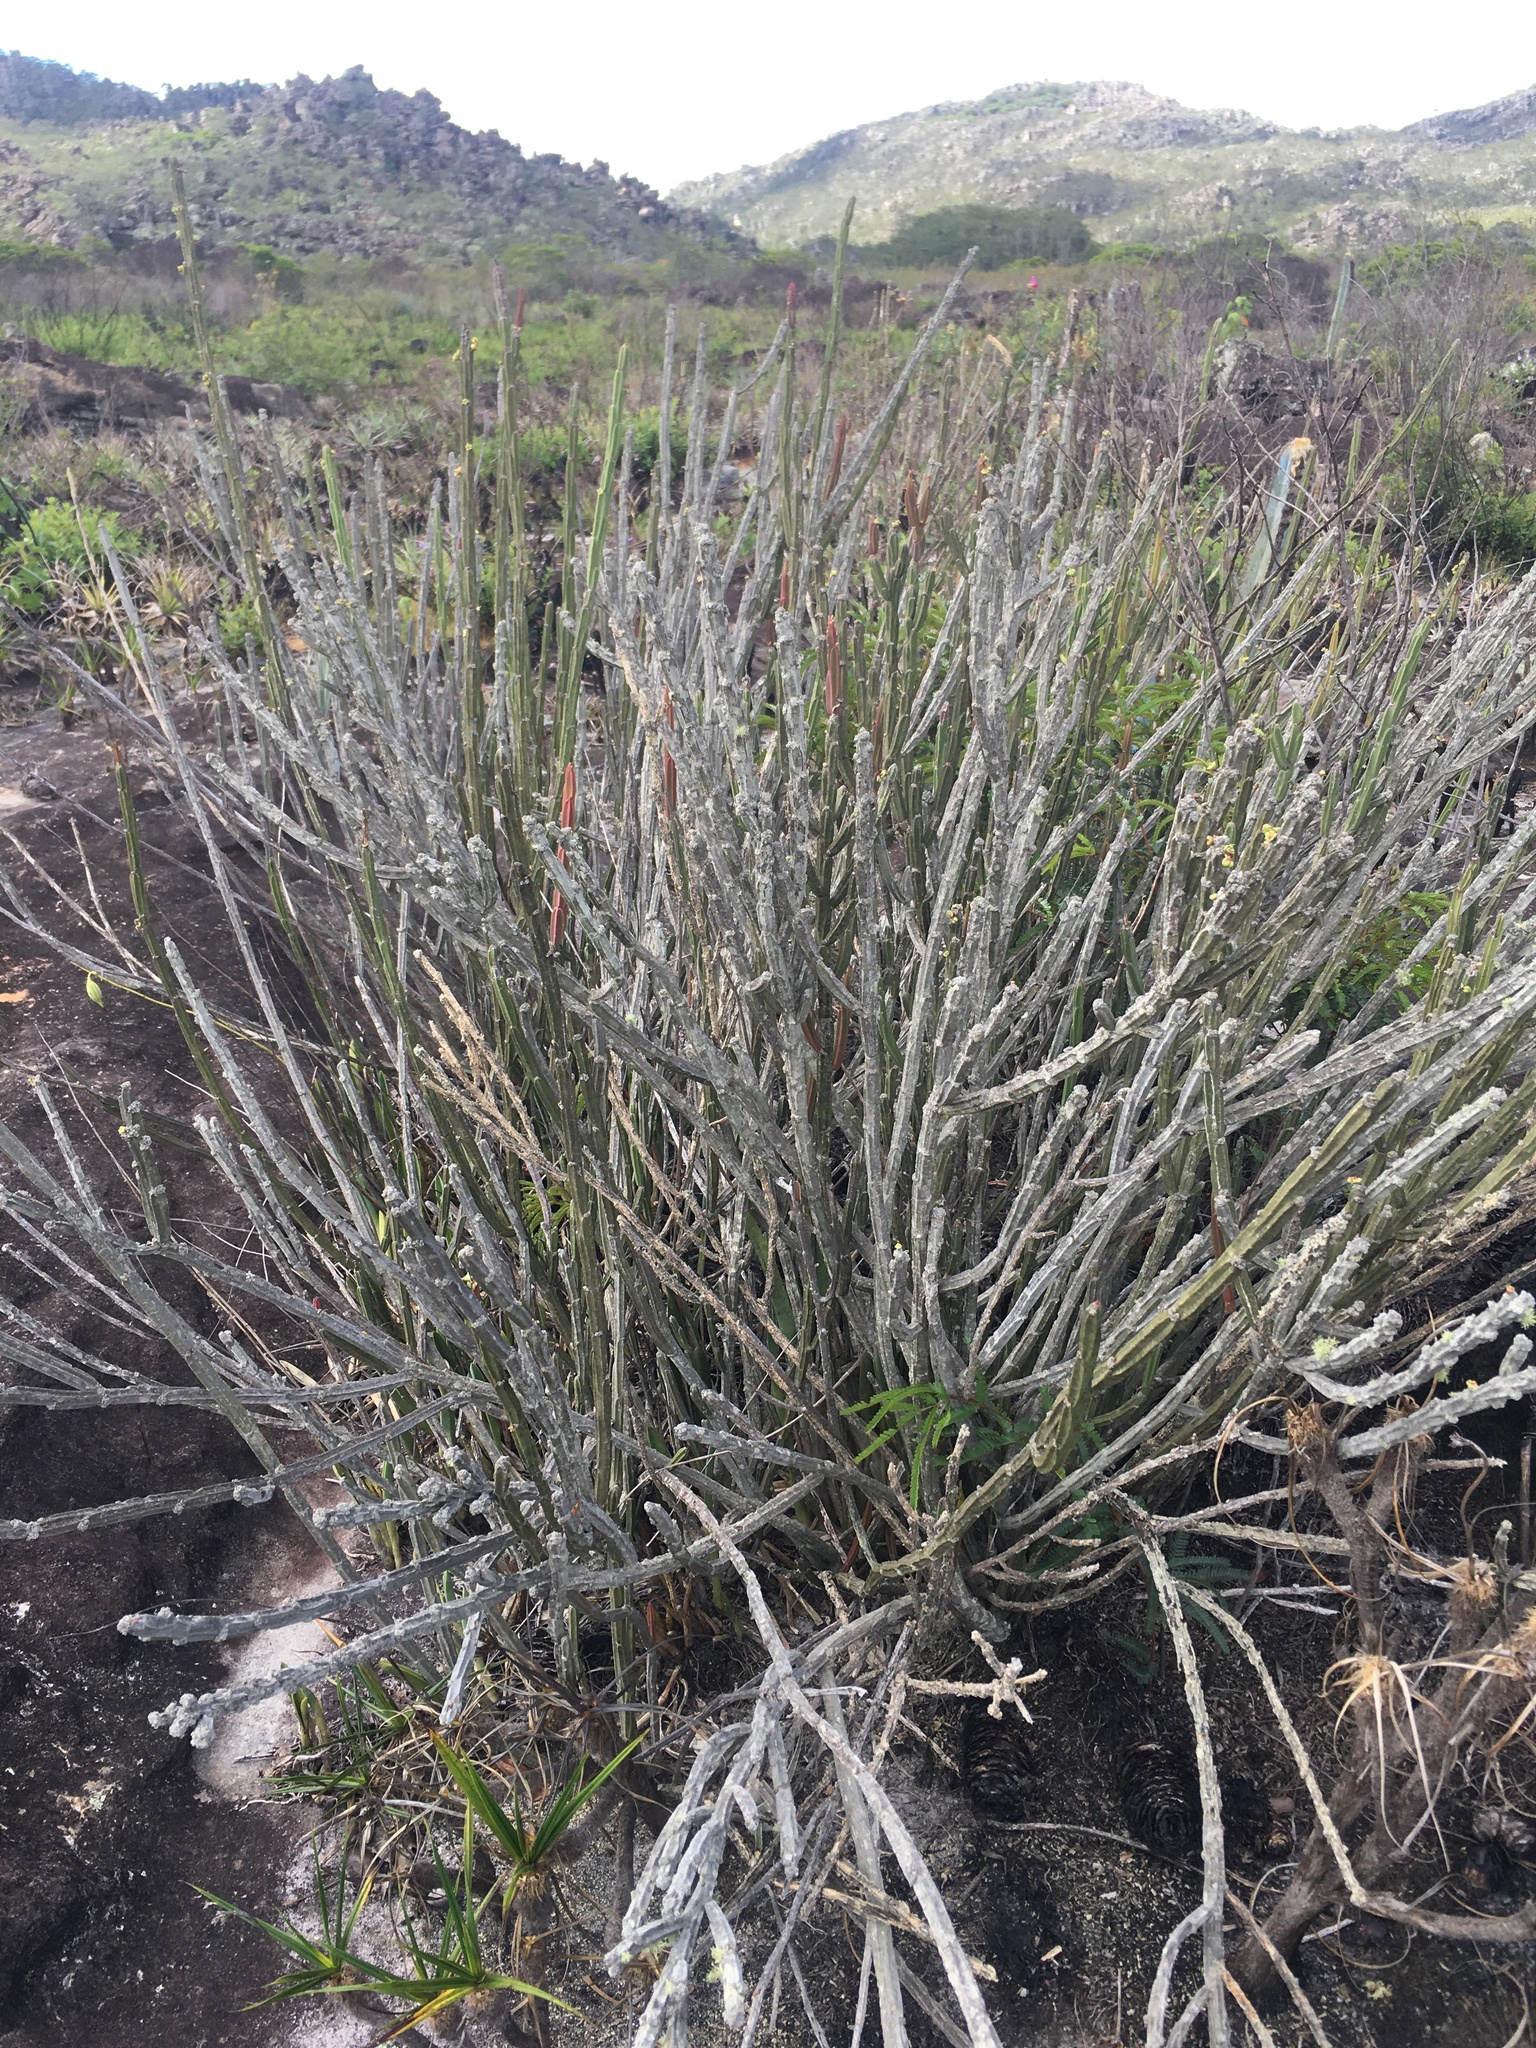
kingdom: Plantae
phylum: Tracheophyta
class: Magnoliopsida
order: Malpighiales
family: Euphorbiaceae
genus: Euphorbia
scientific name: Euphorbia attastoma
